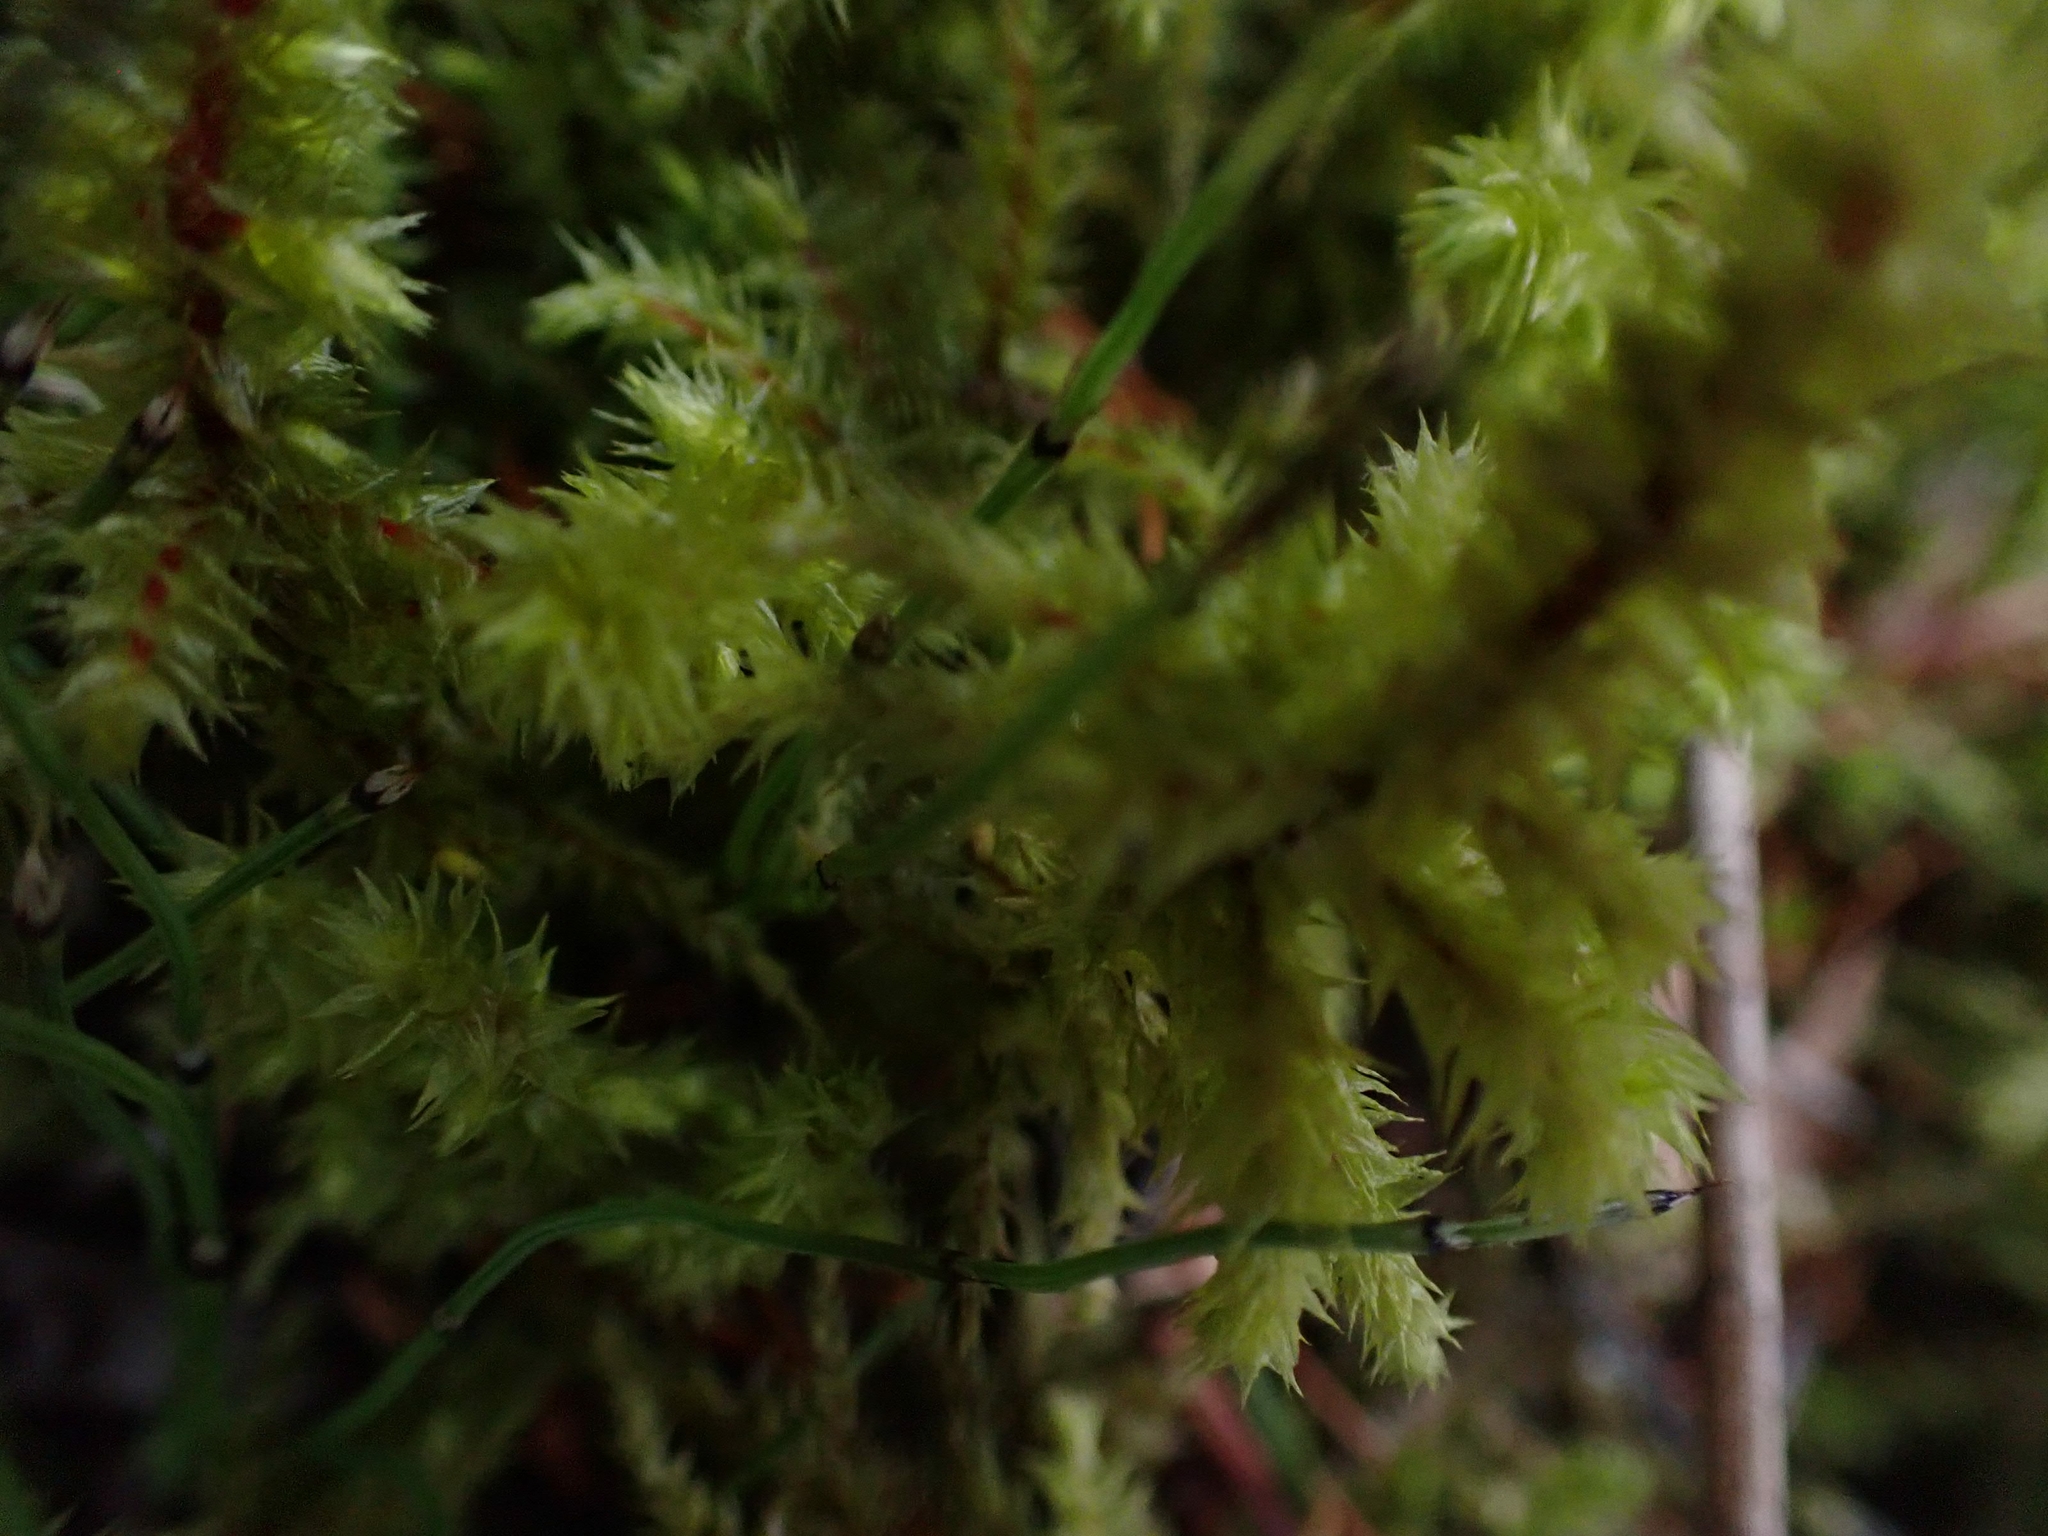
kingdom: Plantae
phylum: Bryophyta
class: Bryopsida
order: Hypnales
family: Hylocomiaceae
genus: Hylocomiadelphus
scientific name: Hylocomiadelphus triquetrus
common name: Rough goose neck moss
